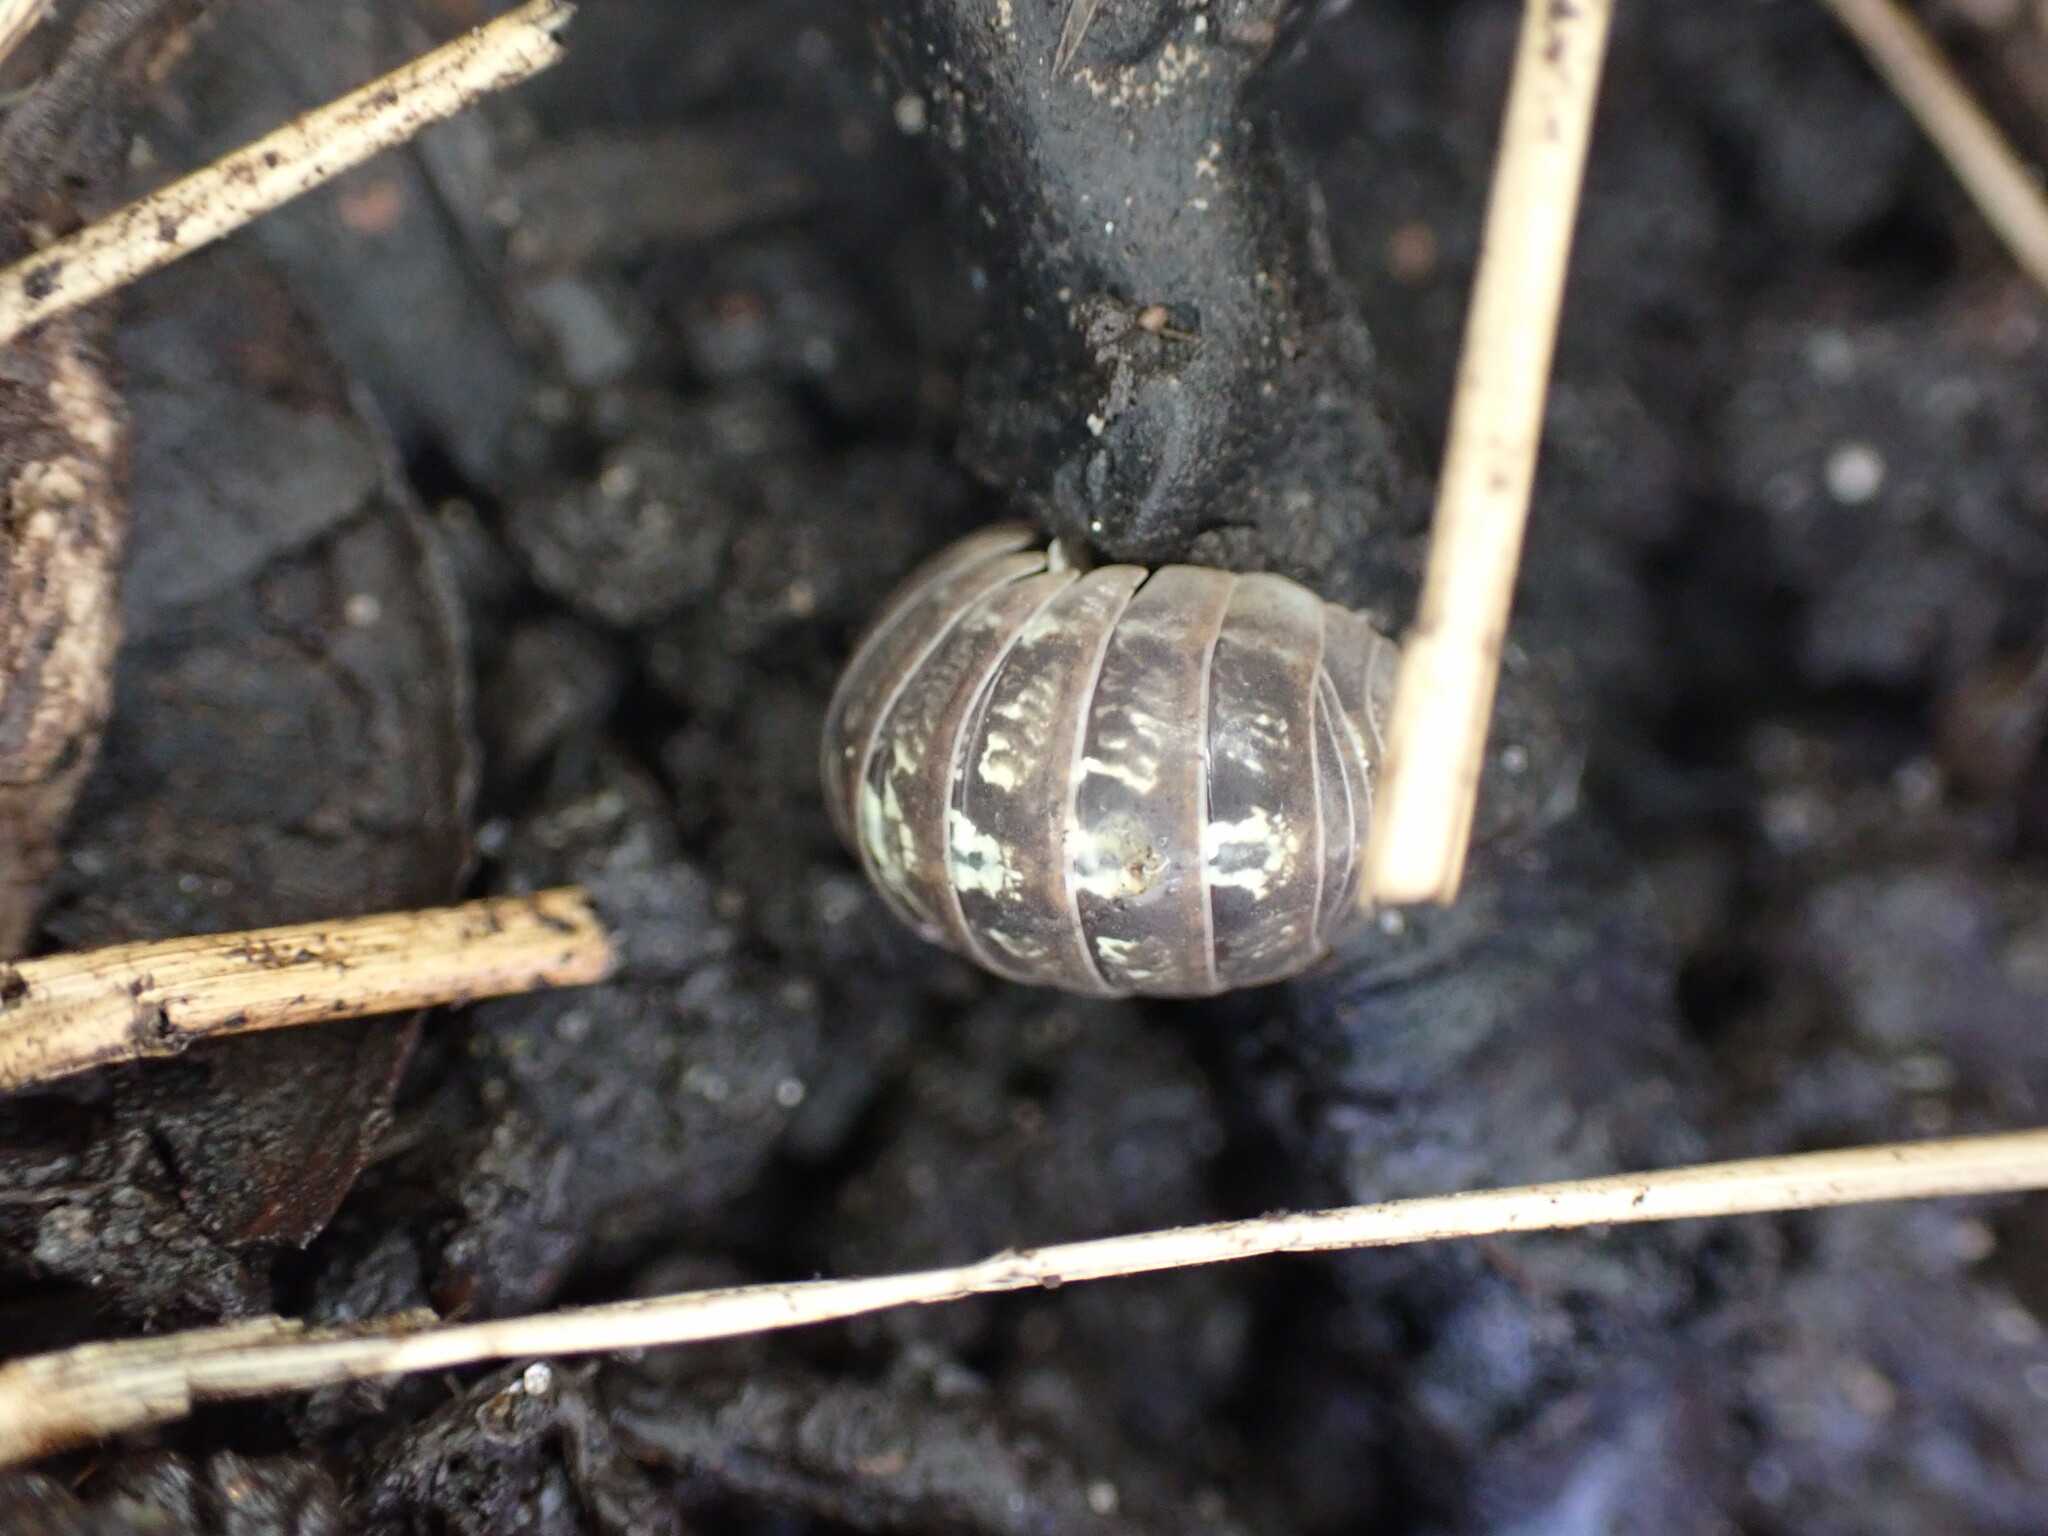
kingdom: Animalia
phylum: Arthropoda
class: Malacostraca
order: Isopoda
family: Armadillidiidae
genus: Armadillidium
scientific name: Armadillidium vulgare
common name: Common pill woodlouse
